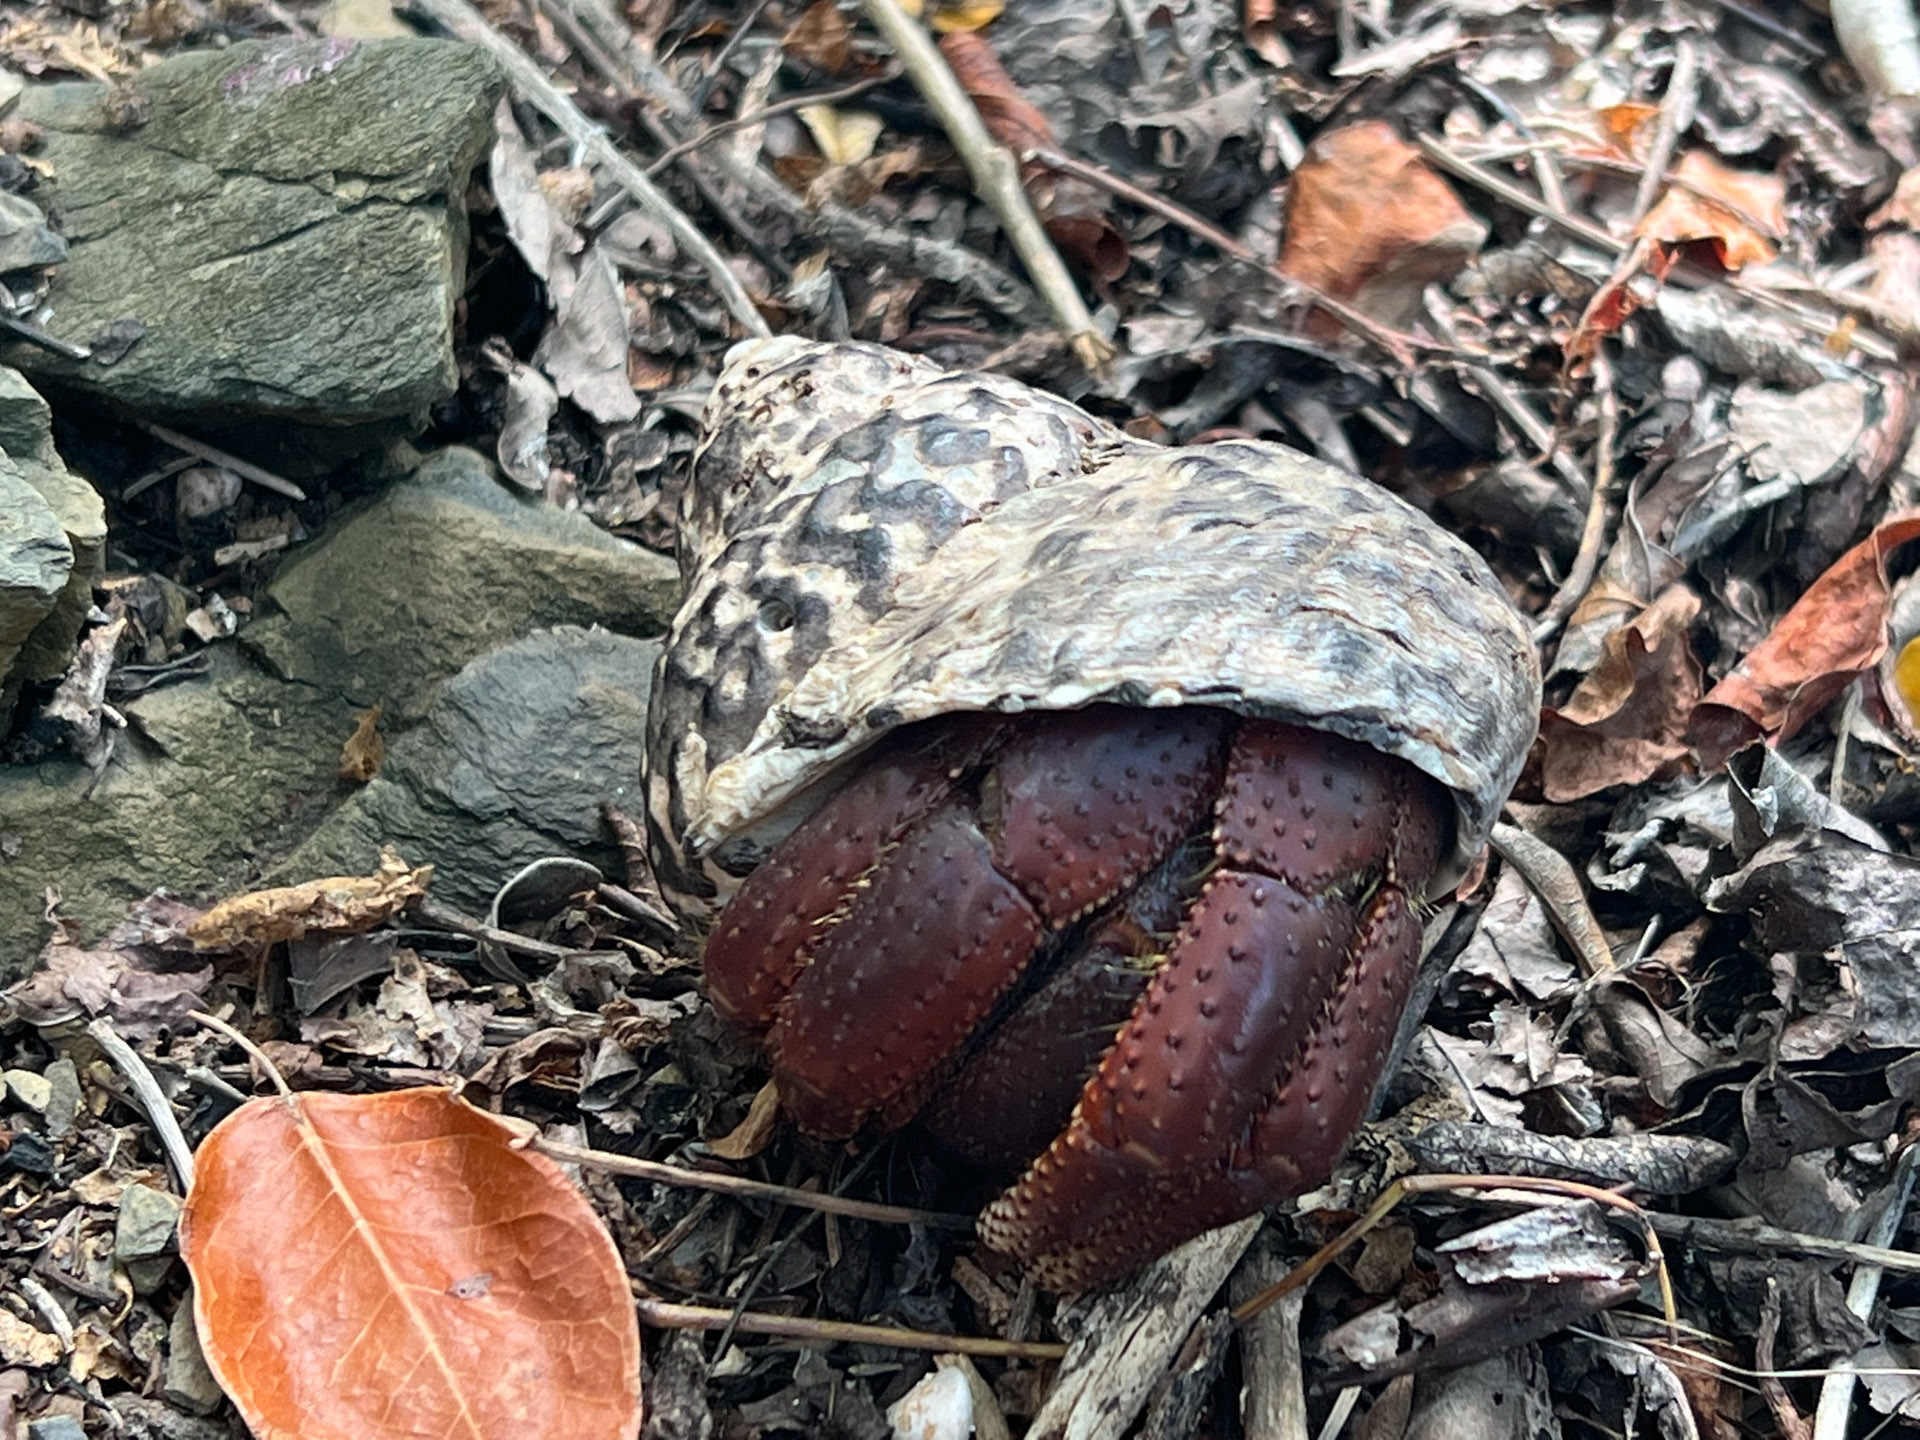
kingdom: Animalia
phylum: Arthropoda
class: Malacostraca
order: Decapoda
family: Coenobitidae
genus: Coenobita
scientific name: Coenobita clypeatus
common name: Caribbean hermit crab
